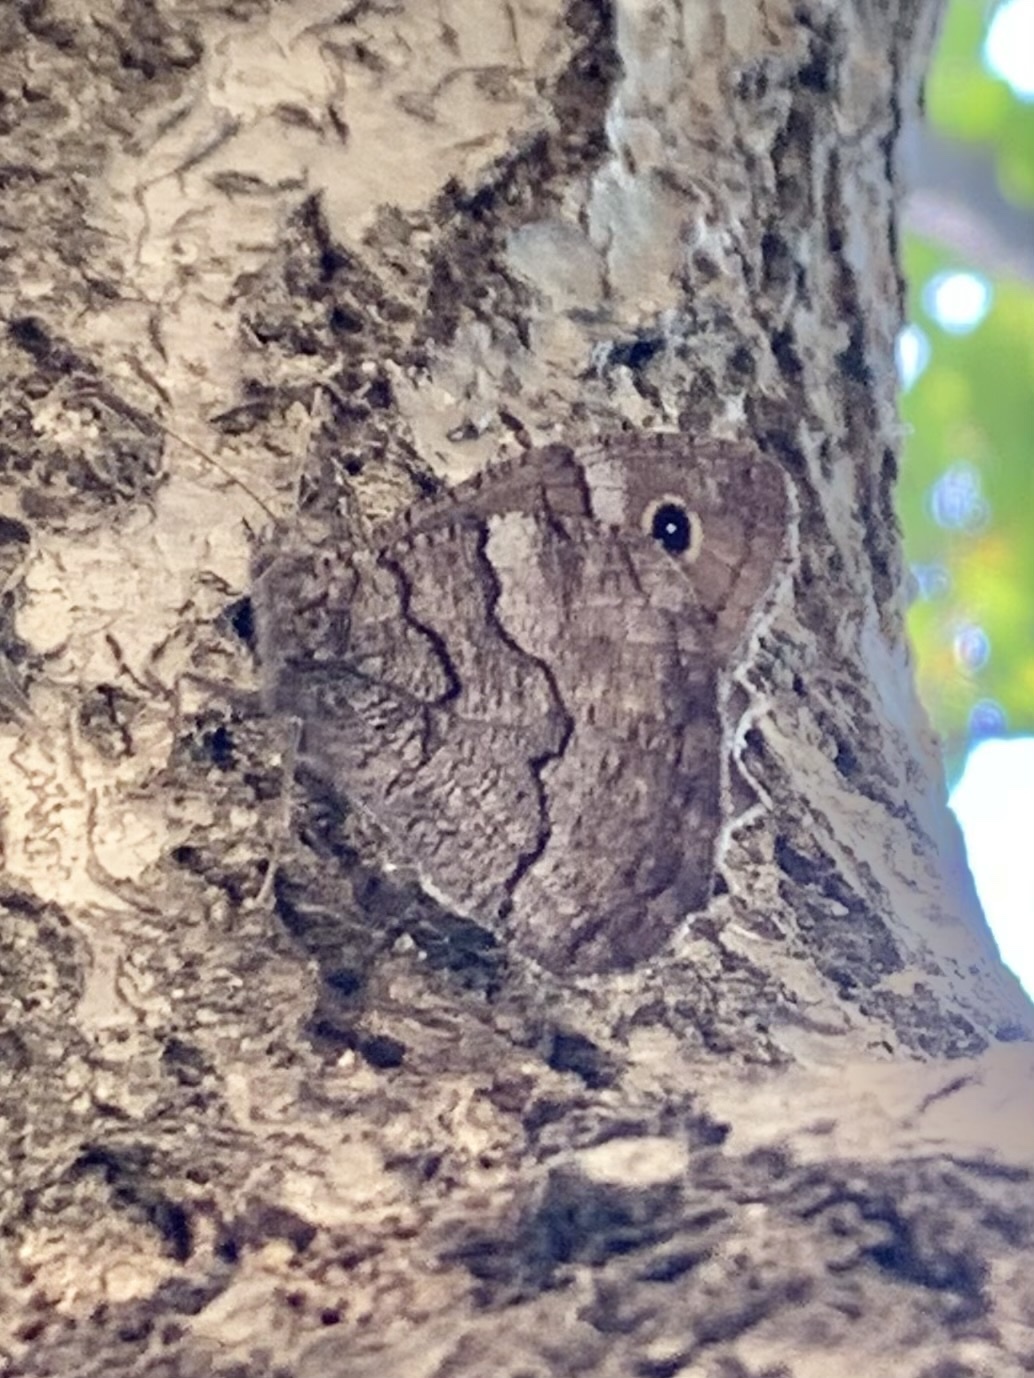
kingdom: Animalia
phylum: Arthropoda
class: Insecta
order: Lepidoptera
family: Nymphalidae
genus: Hipparchia
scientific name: Hipparchia fatua
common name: Freyer's grayling
